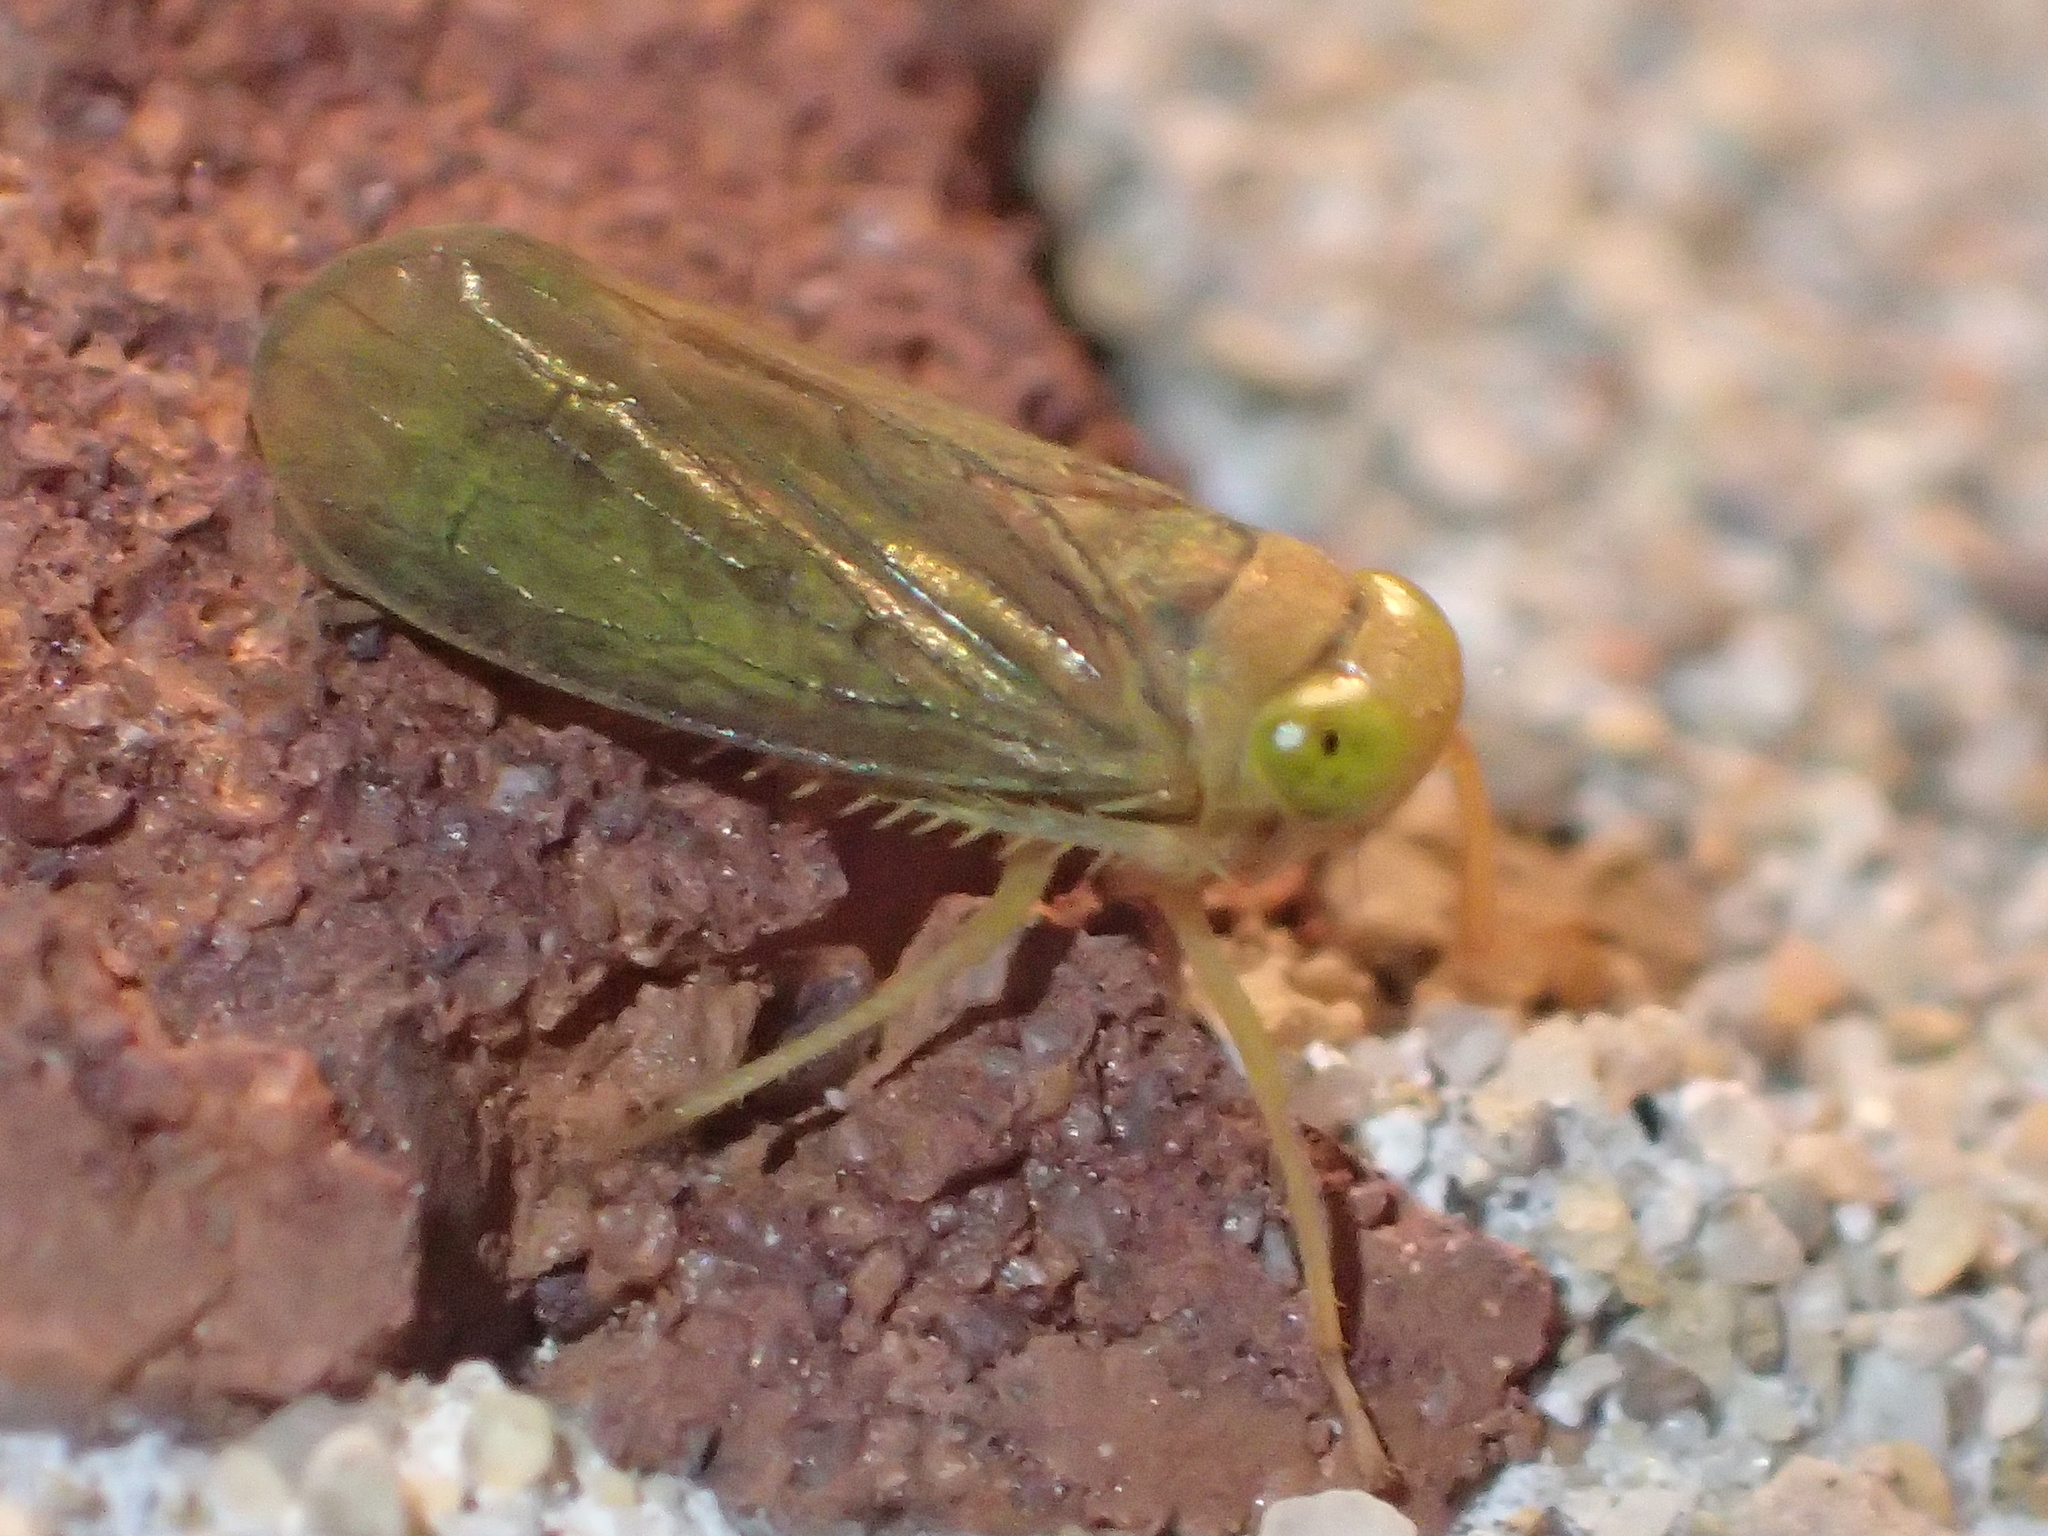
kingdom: Animalia
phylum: Arthropoda
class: Insecta
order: Hemiptera
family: Cicadellidae
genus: Jikradia
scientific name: Jikradia olitoria
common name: Coppery leafhopper
